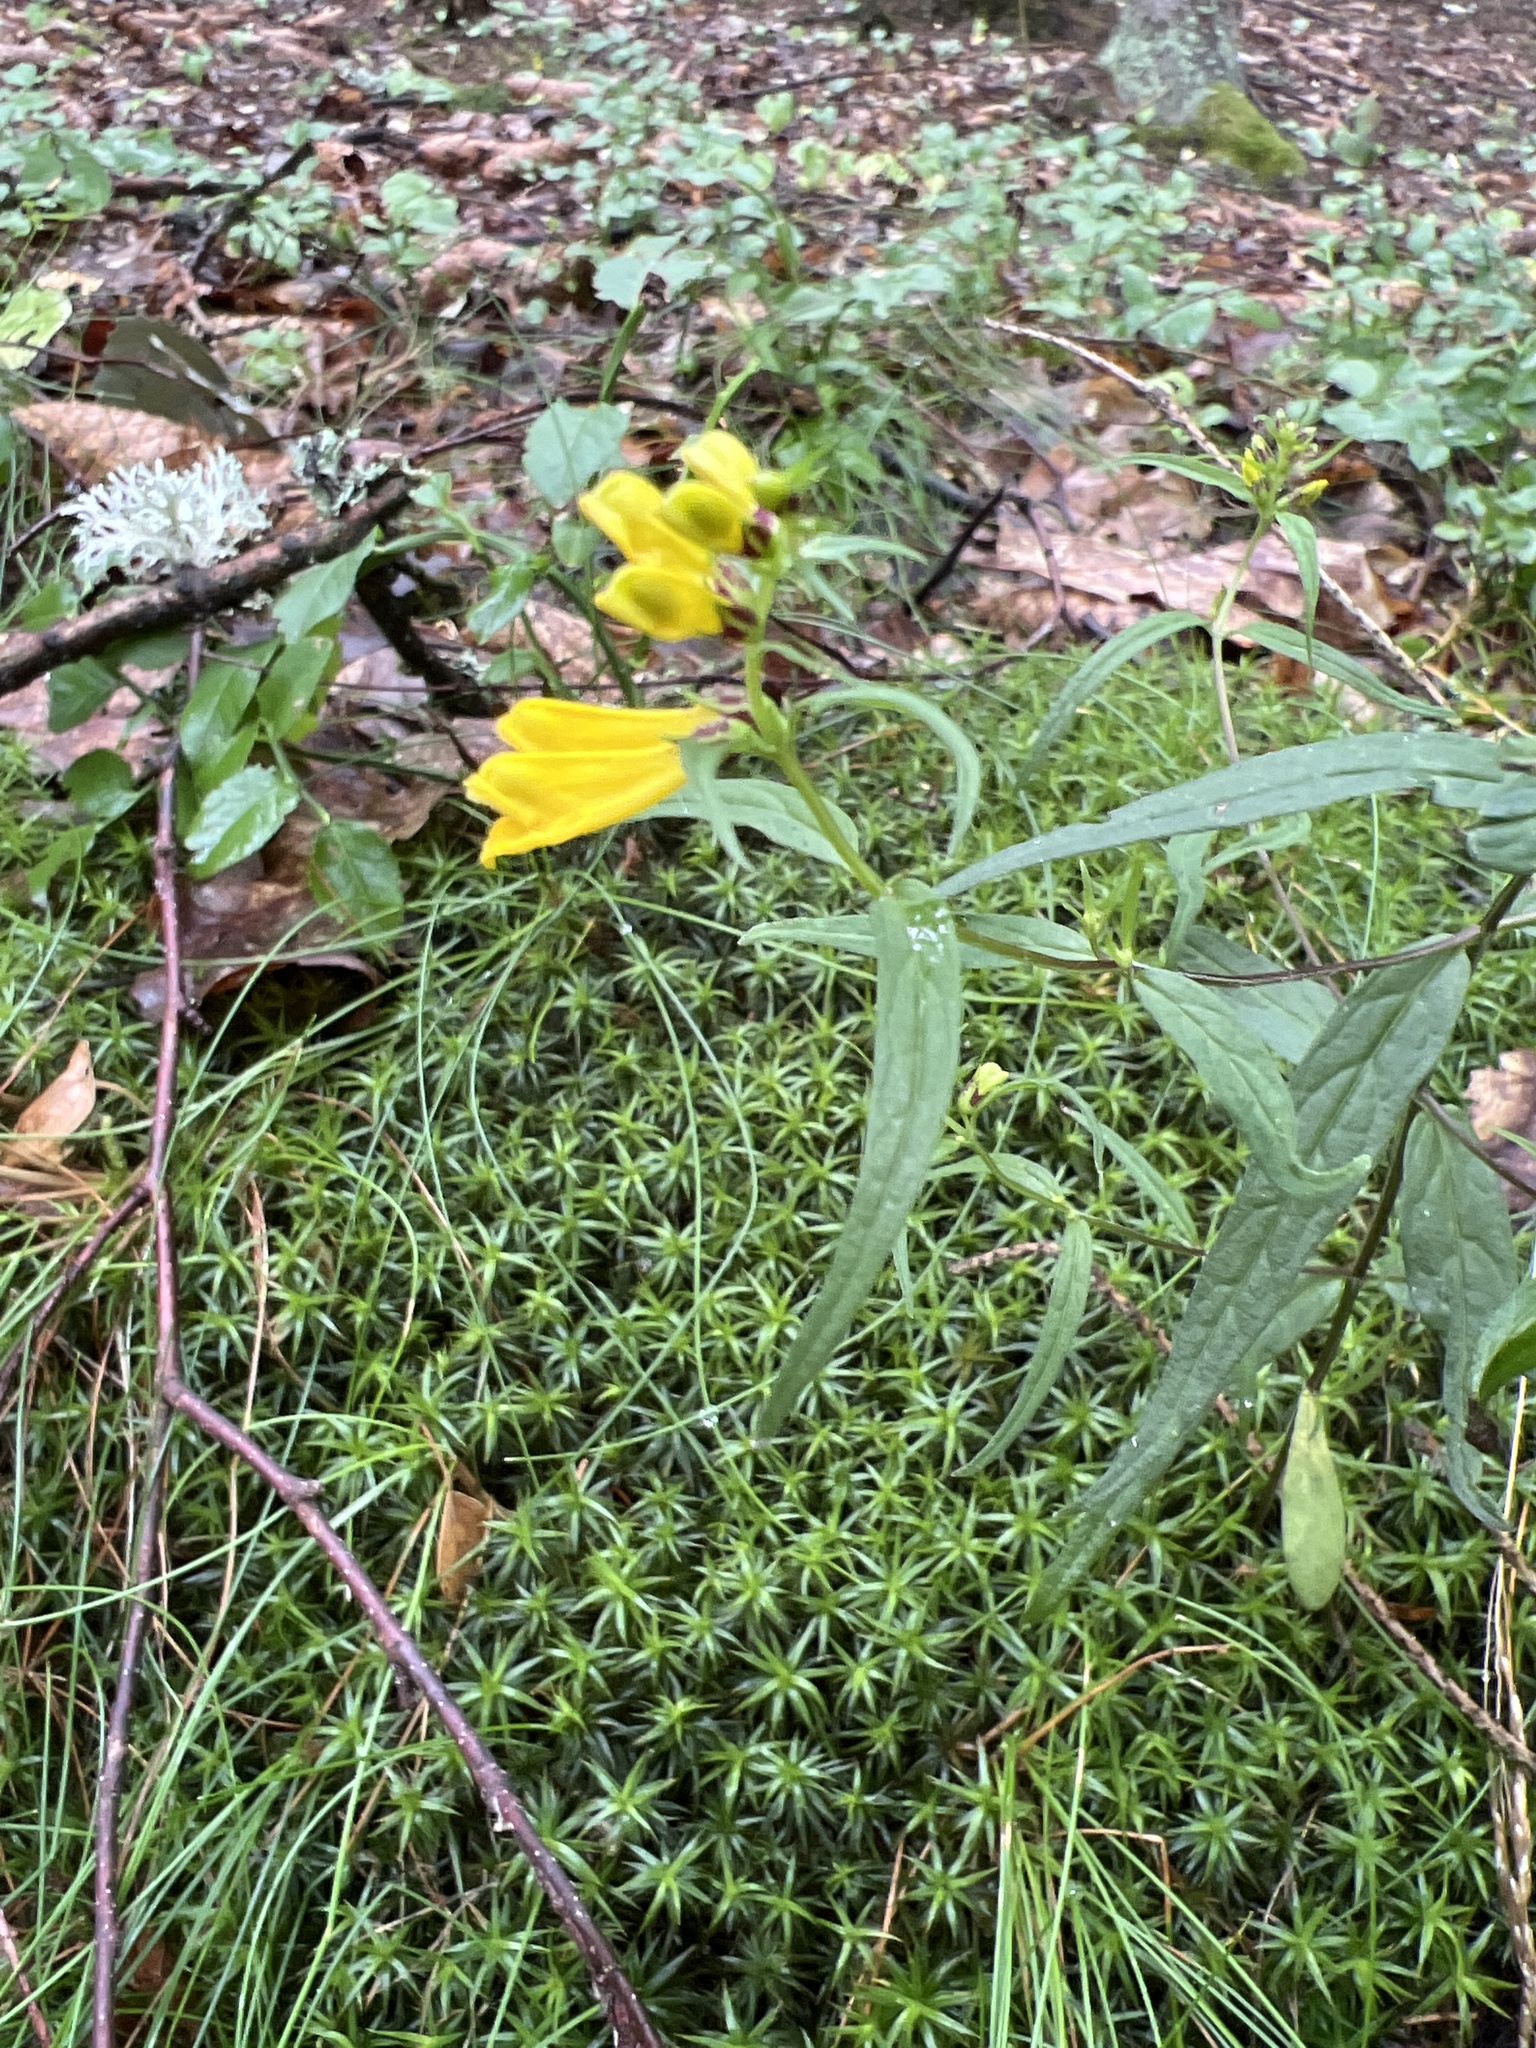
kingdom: Plantae
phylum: Tracheophyta
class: Magnoliopsida
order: Lamiales
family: Orobanchaceae
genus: Melampyrum
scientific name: Melampyrum pratense
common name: Common cow-wheat
